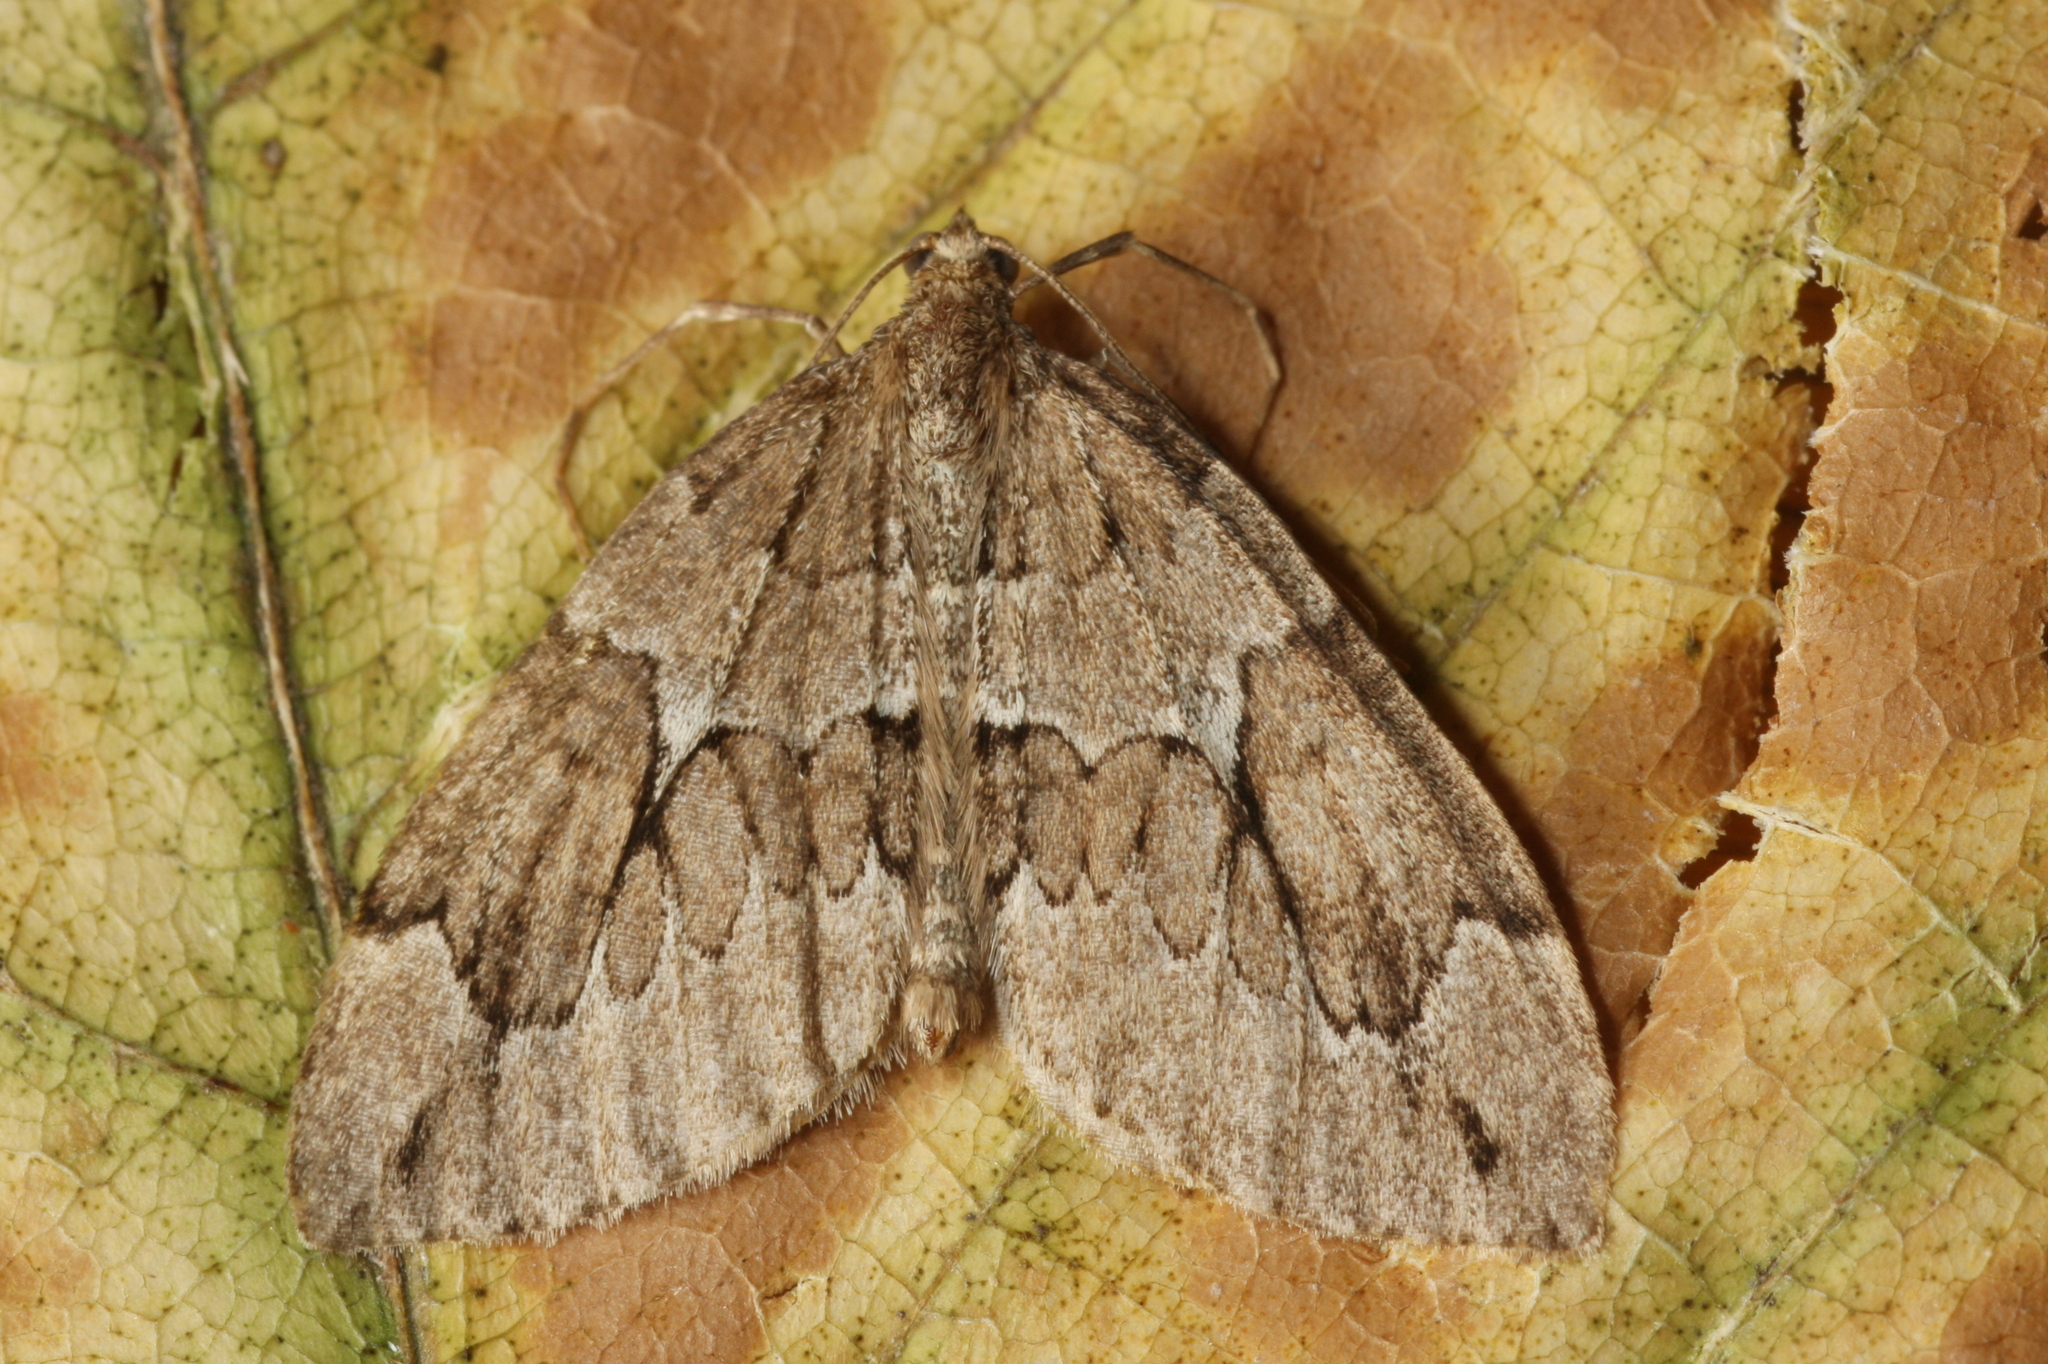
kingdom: Animalia
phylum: Arthropoda
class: Insecta
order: Lepidoptera
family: Geometridae
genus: Thera
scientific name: Thera juniperata
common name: Juniper carpet
